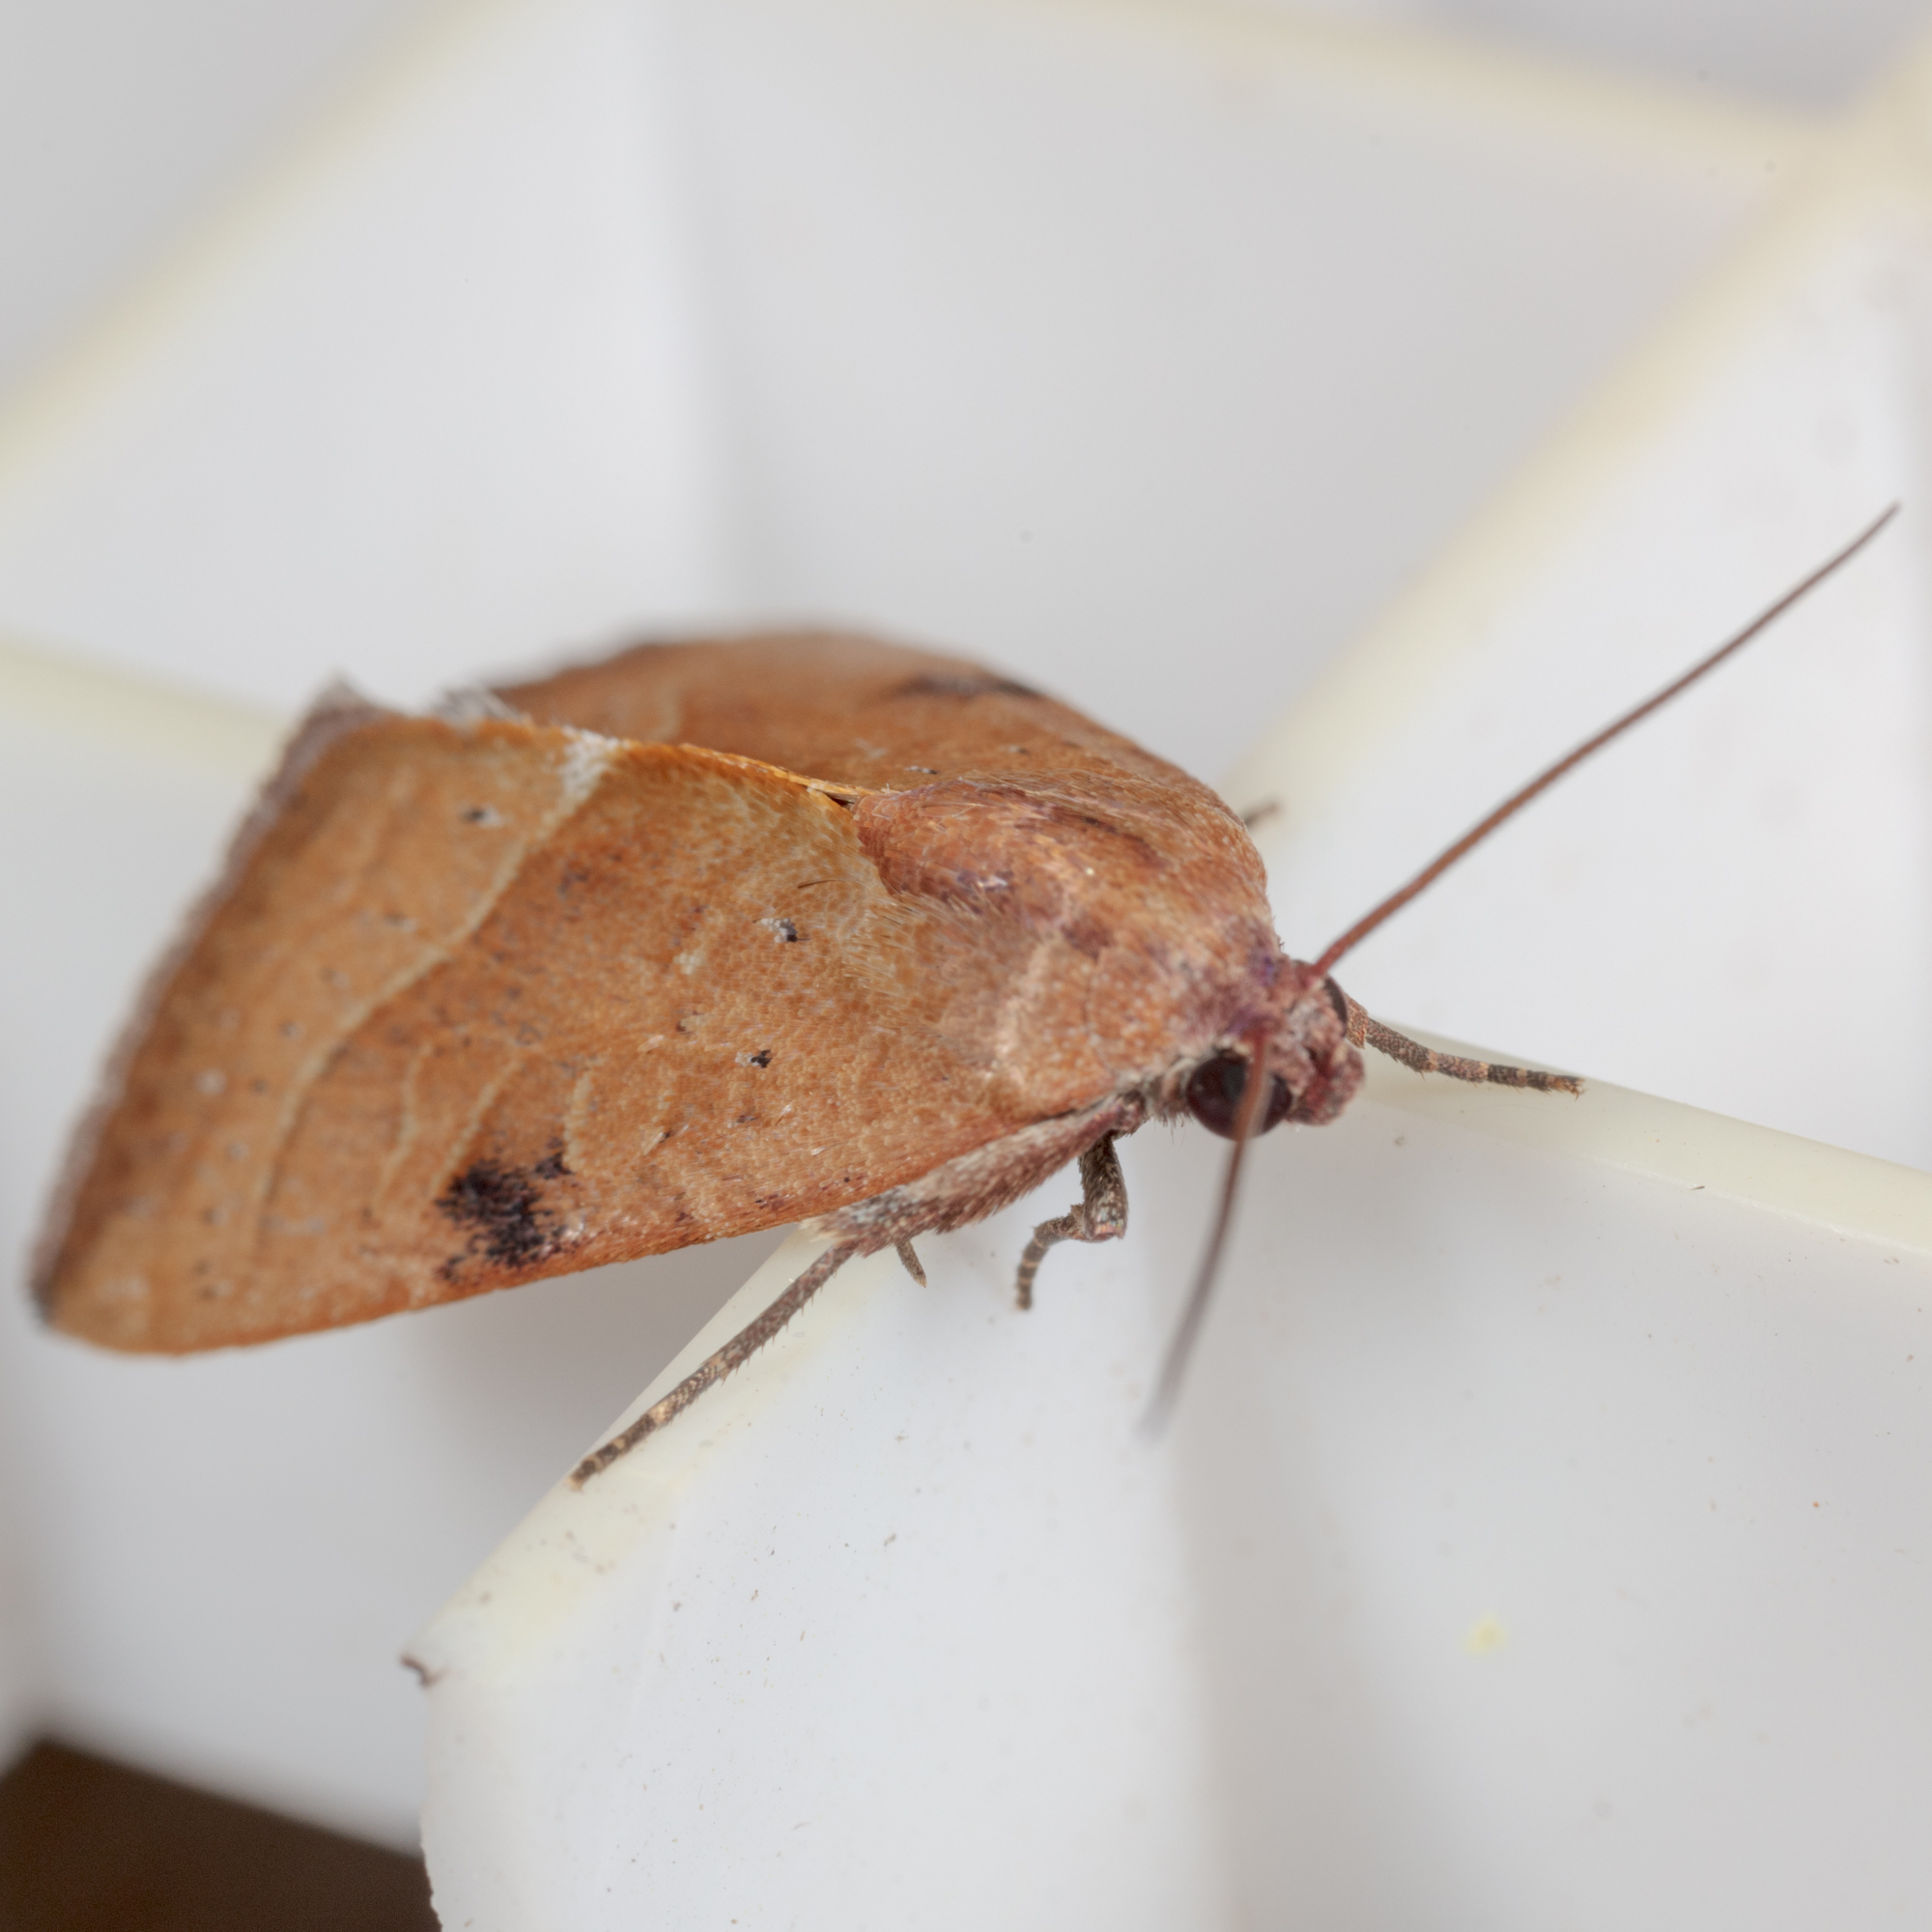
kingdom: Animalia
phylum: Arthropoda
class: Insecta
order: Lepidoptera
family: Noctuidae
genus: Galgula
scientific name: Galgula partita
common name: Wedgeling
